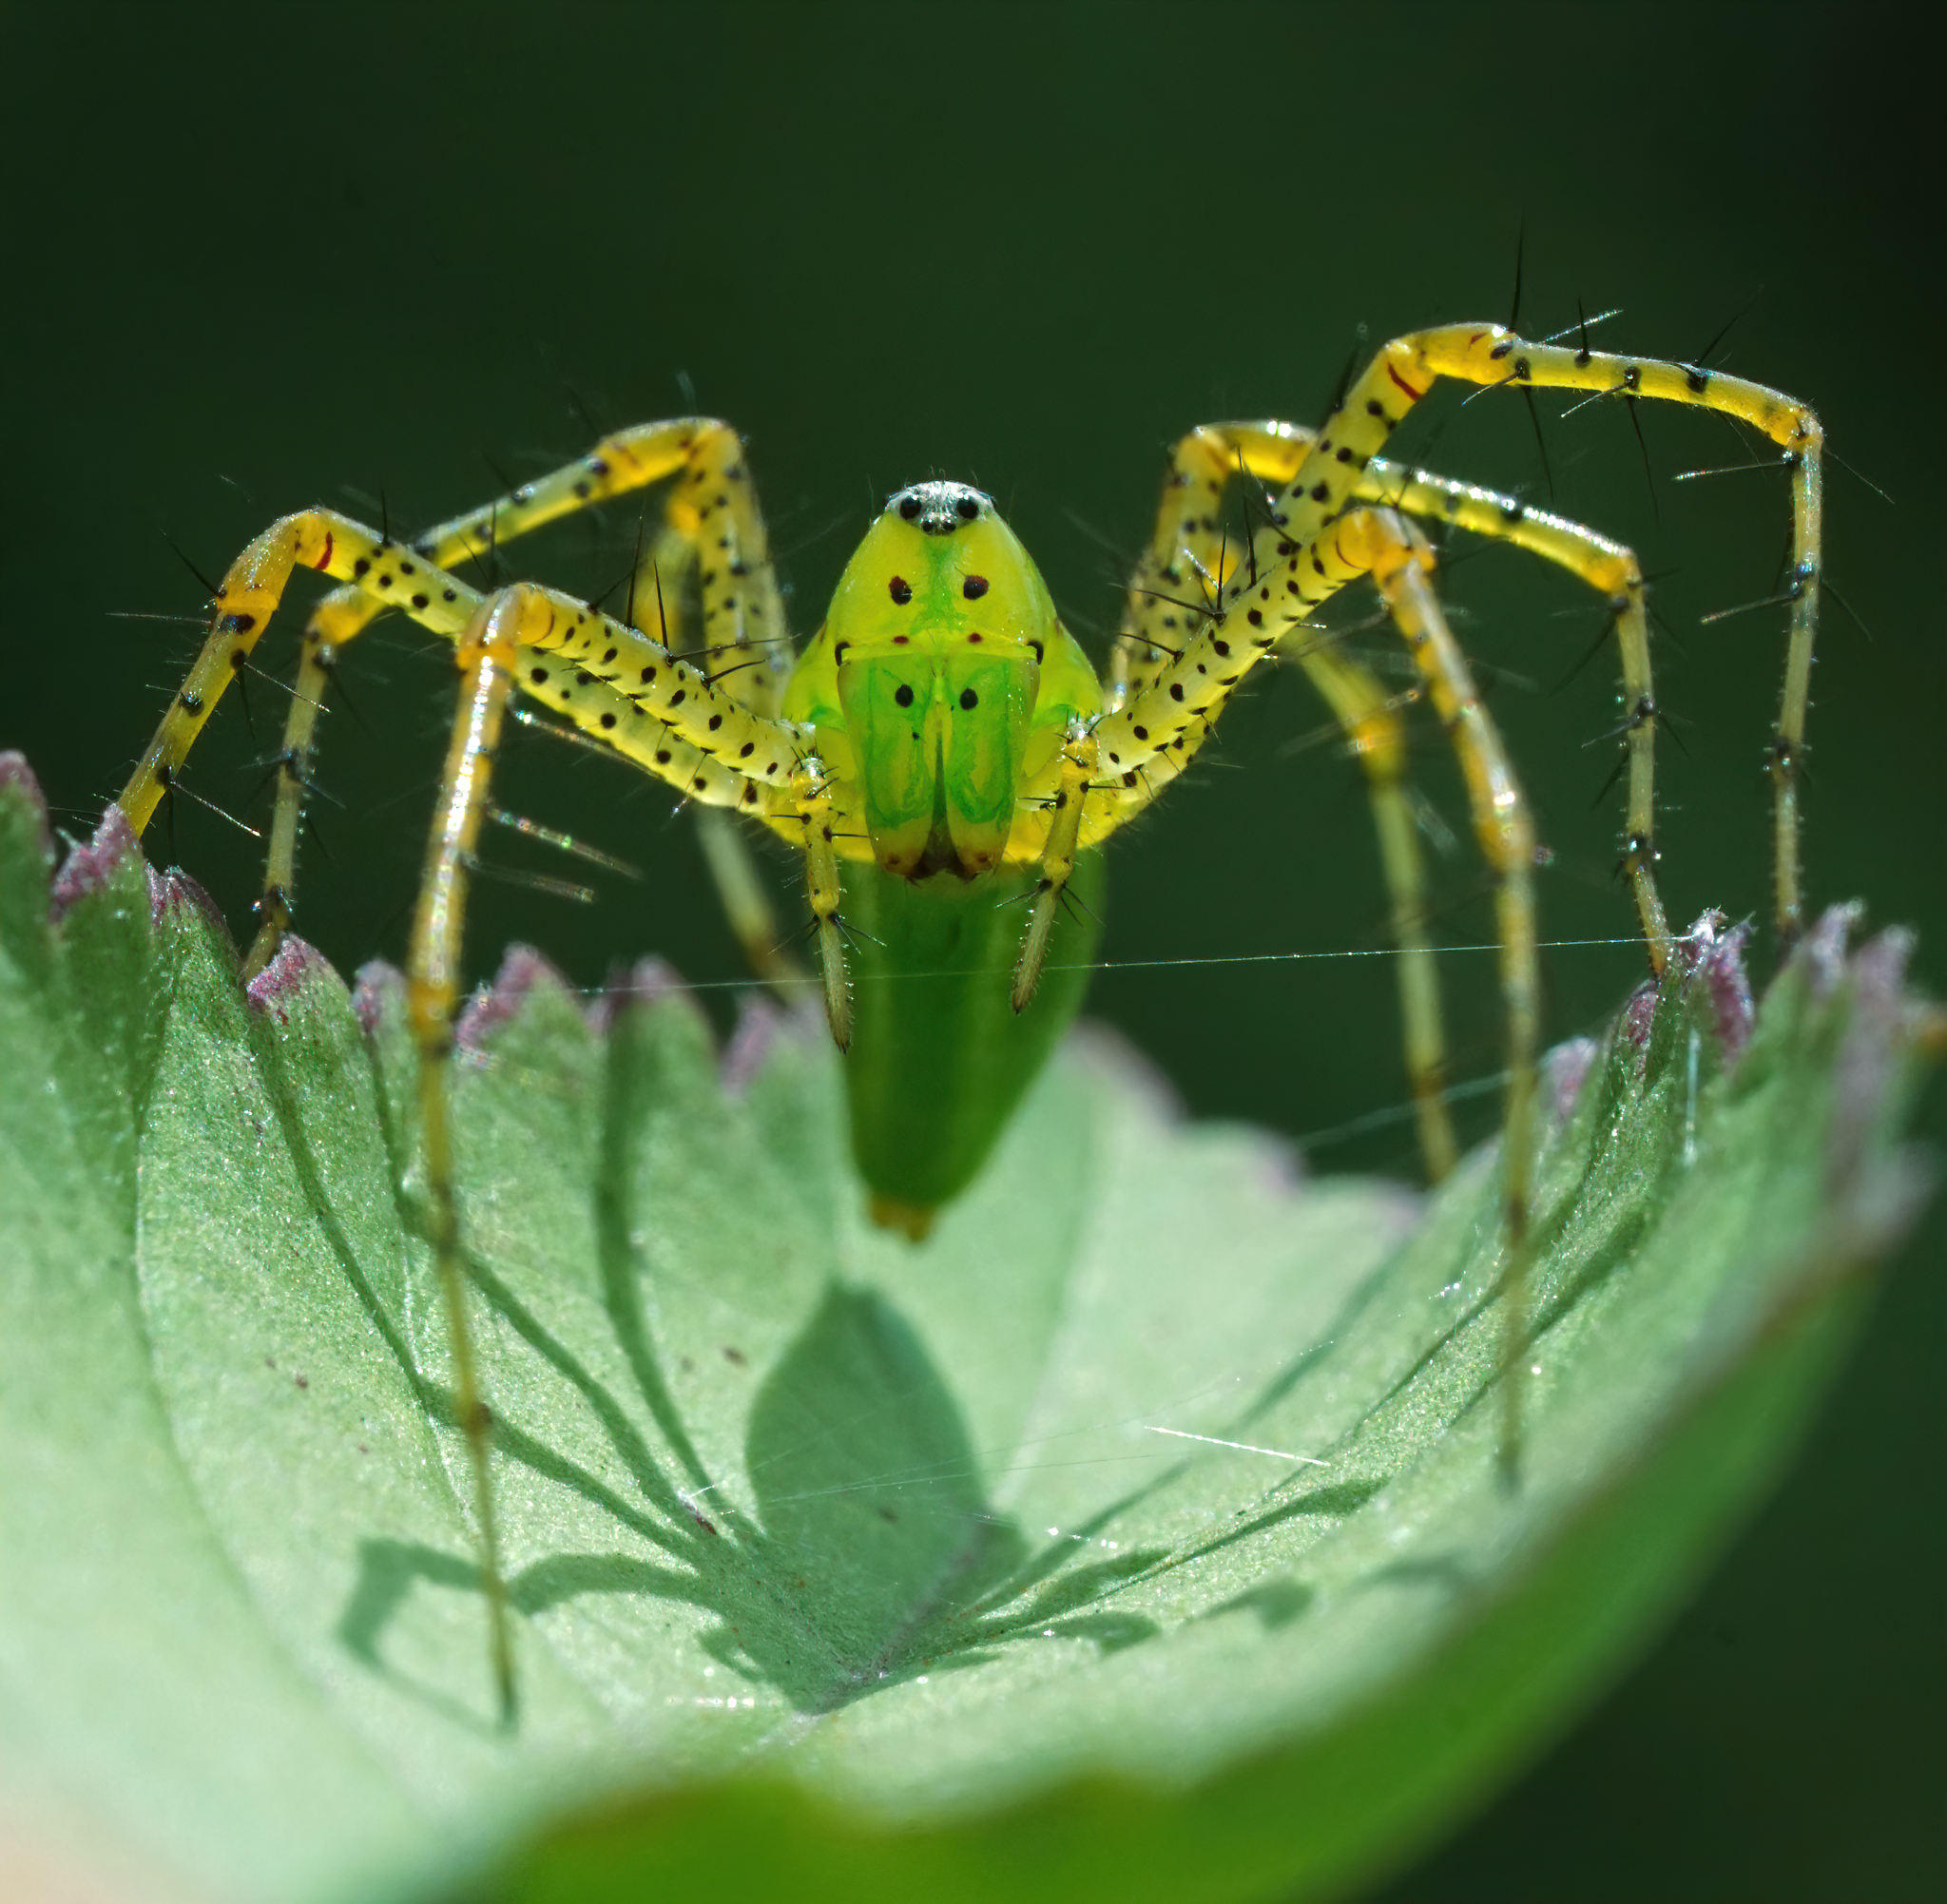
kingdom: Animalia
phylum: Arthropoda
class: Arachnida
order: Araneae
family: Oxyopidae
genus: Peucetia
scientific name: Peucetia viridans
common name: Lynx spiders
